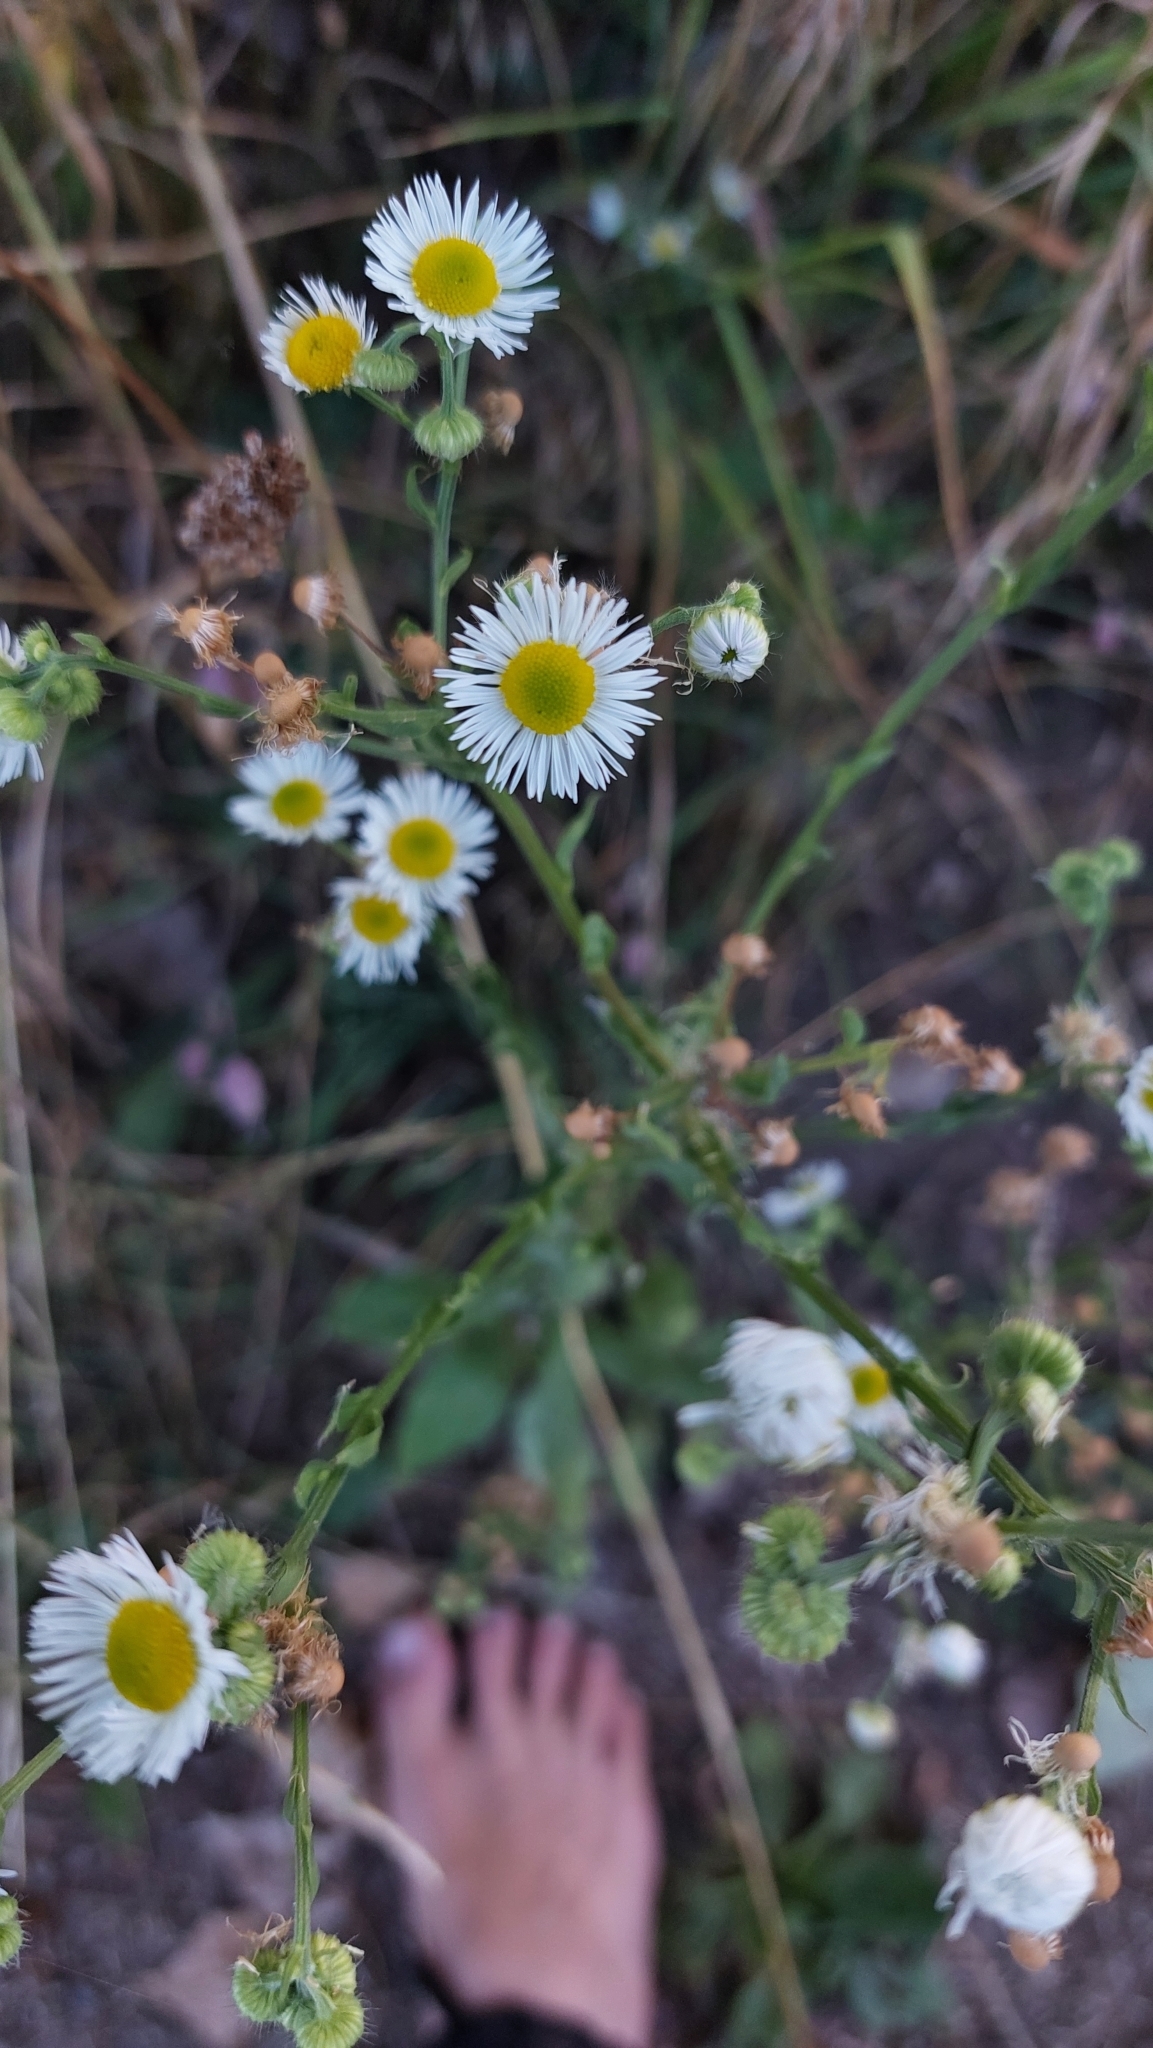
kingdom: Plantae
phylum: Tracheophyta
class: Magnoliopsida
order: Asterales
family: Asteraceae
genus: Erigeron
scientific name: Erigeron annuus
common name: Tall fleabane
